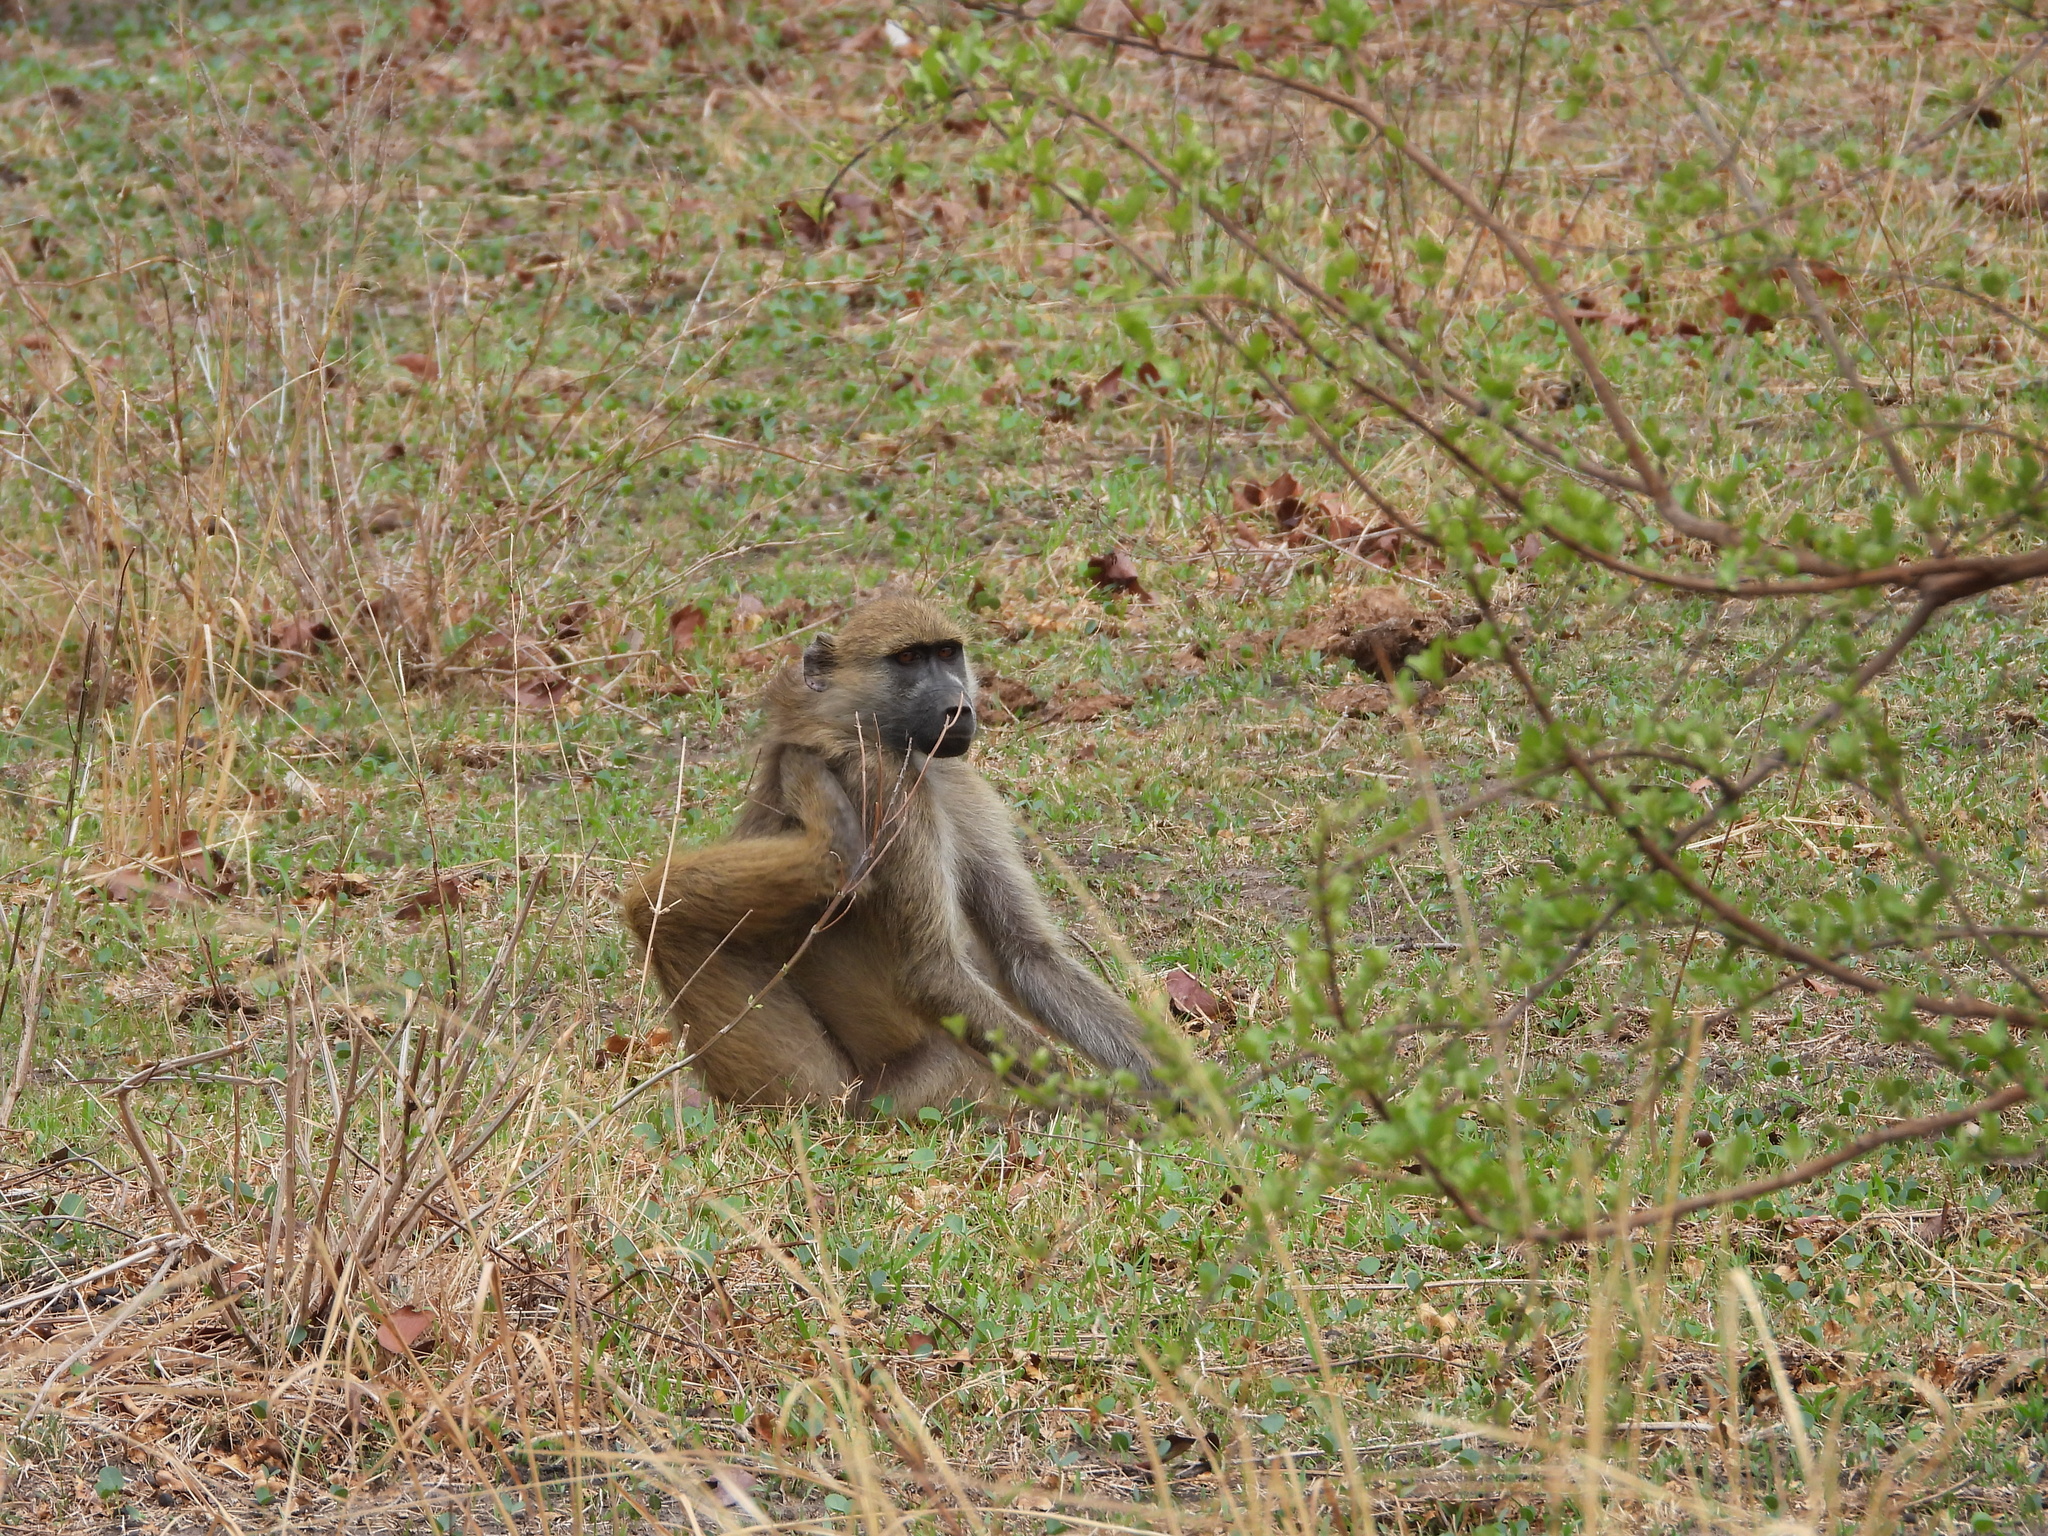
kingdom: Animalia
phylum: Chordata
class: Mammalia
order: Primates
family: Cercopithecidae
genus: Papio
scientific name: Papio ursinus
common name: Chacma baboon
